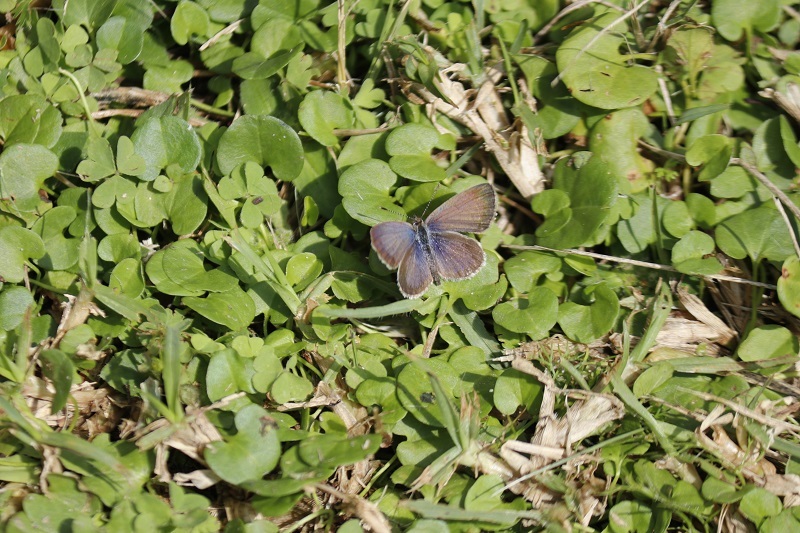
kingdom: Animalia
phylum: Arthropoda
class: Insecta
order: Lepidoptera
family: Lycaenidae
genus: Zizeeria
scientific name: Zizeeria knysna
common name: African grass blue
